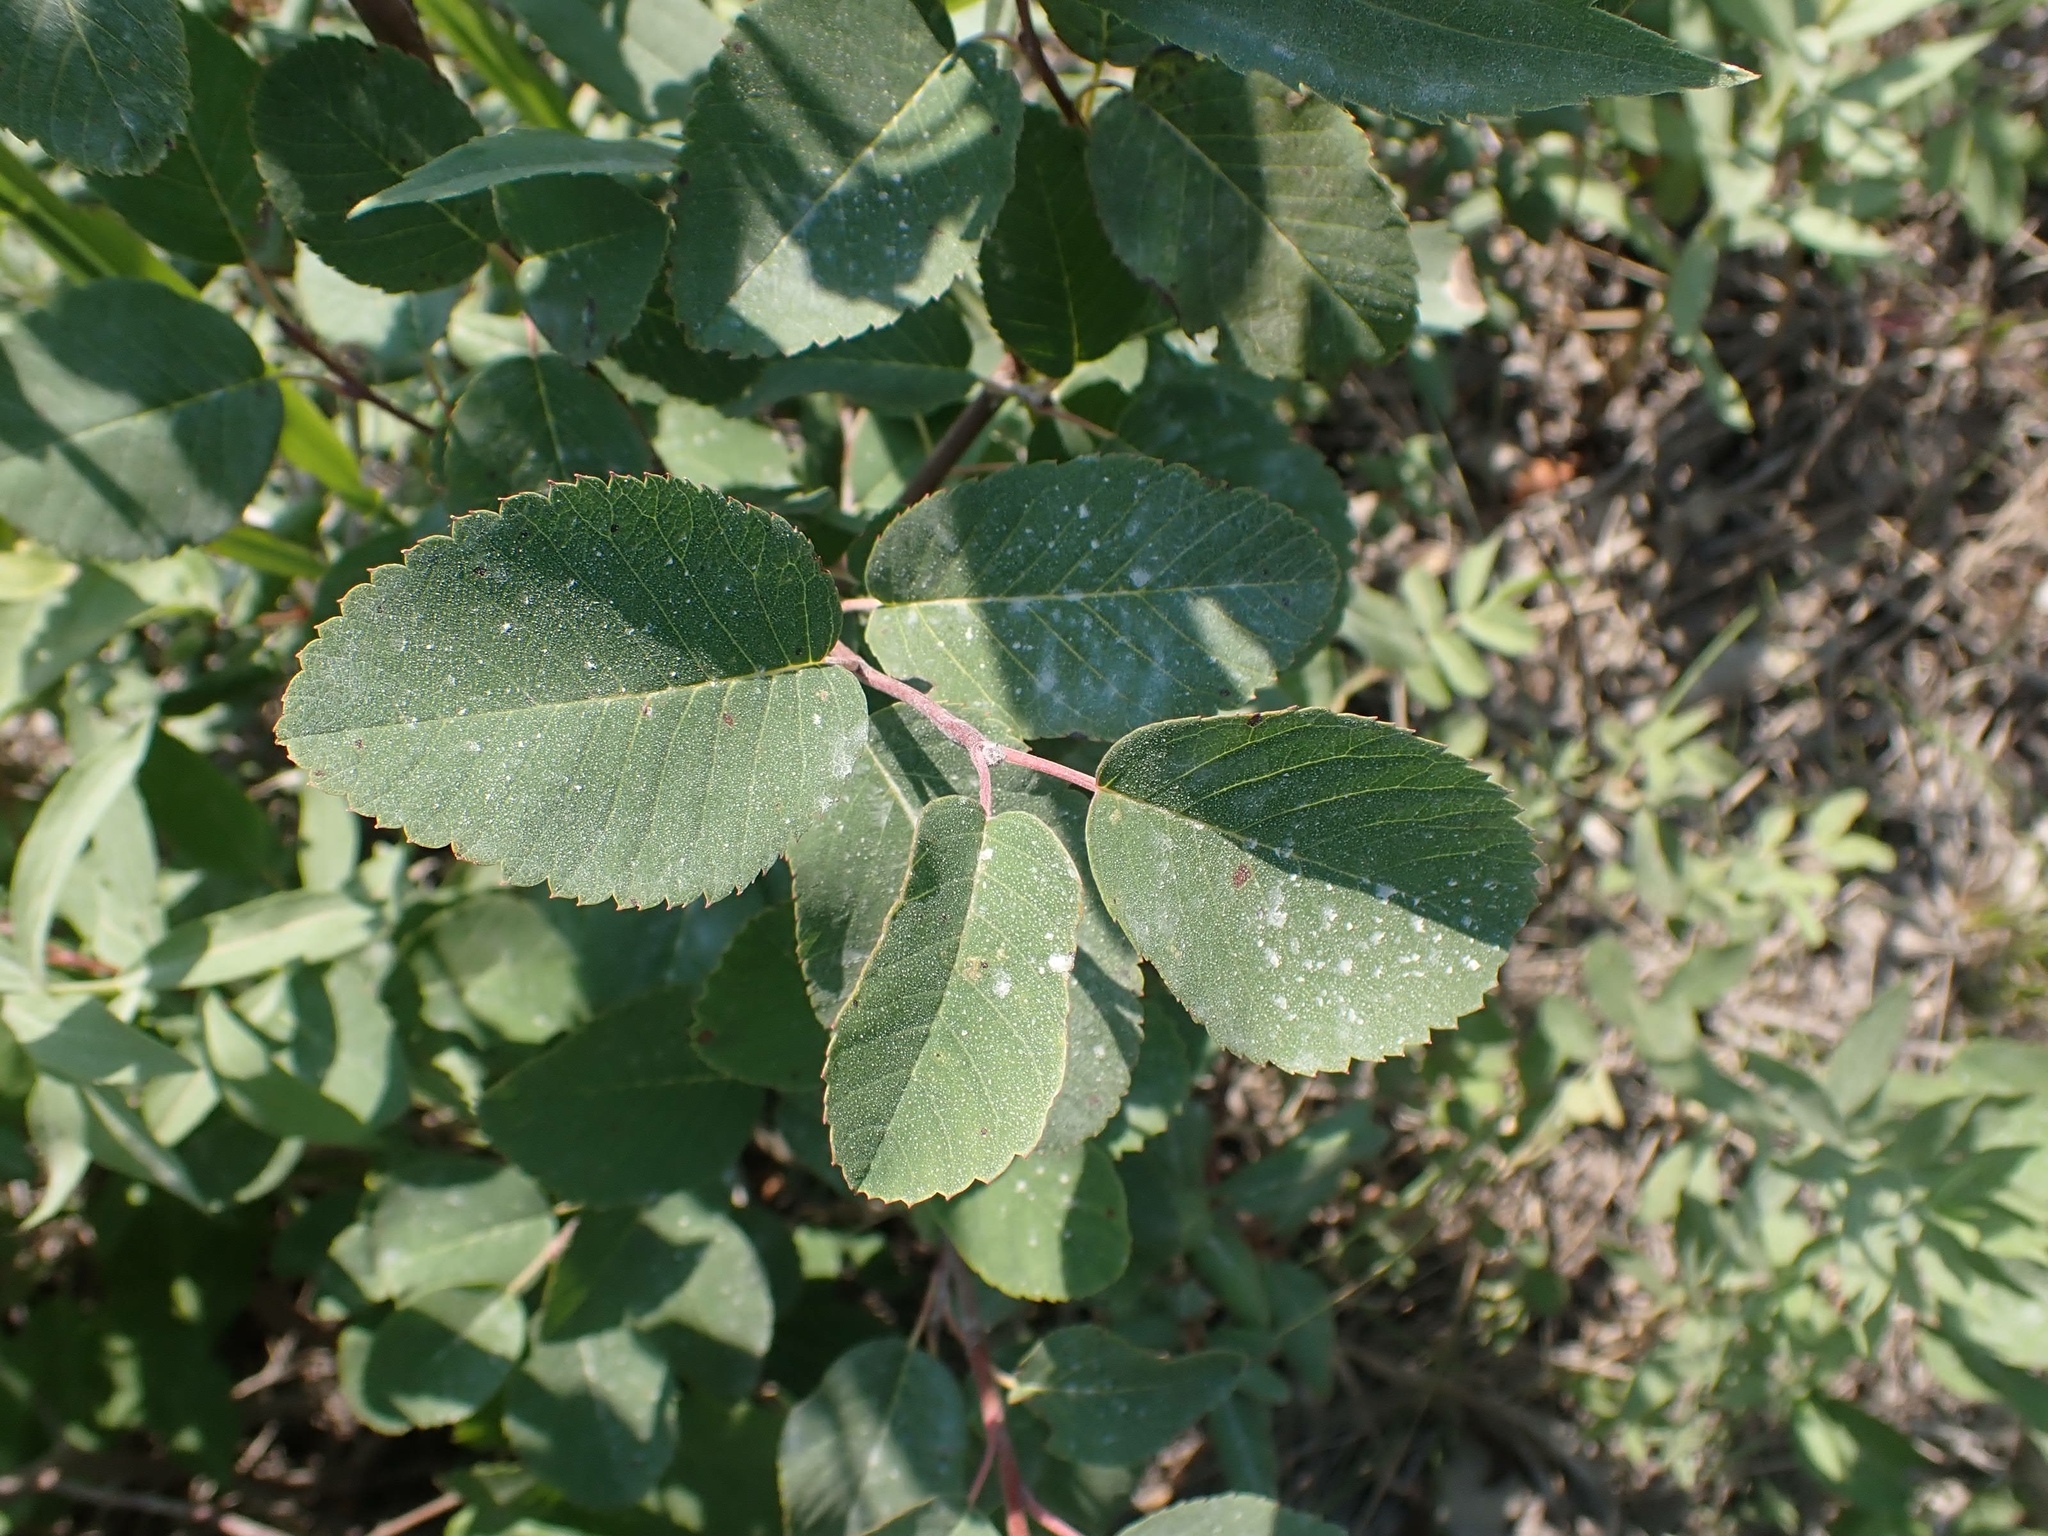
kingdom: Plantae
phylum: Tracheophyta
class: Magnoliopsida
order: Rosales
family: Rosaceae
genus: Amelanchier
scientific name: Amelanchier alnifolia
